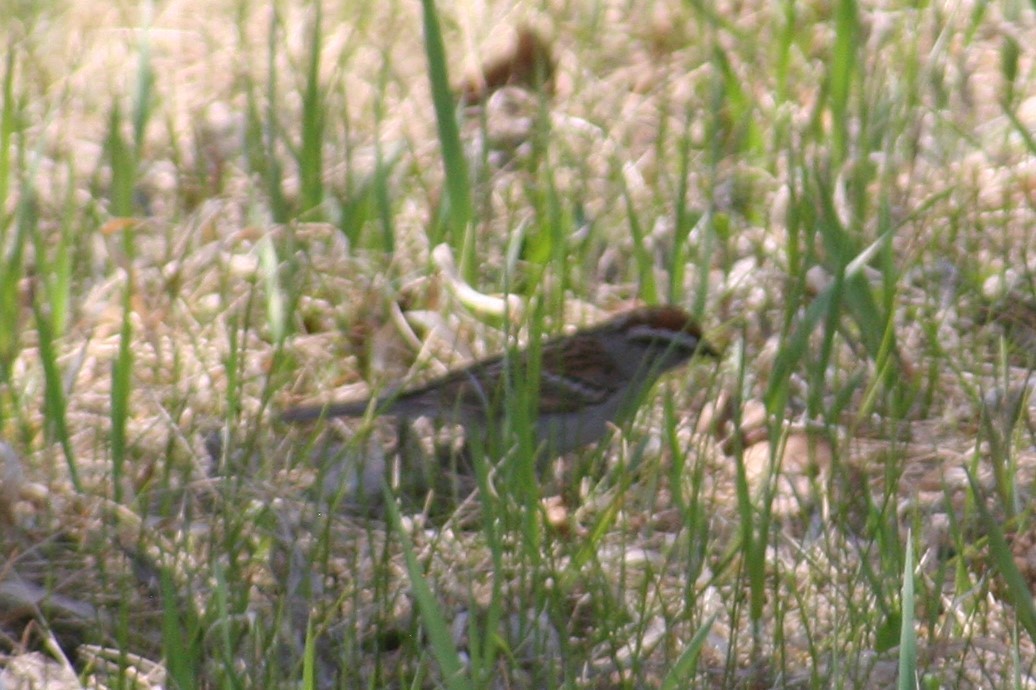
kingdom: Animalia
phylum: Chordata
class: Aves
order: Passeriformes
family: Passerellidae
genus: Spizella
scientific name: Spizella passerina
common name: Chipping sparrow
